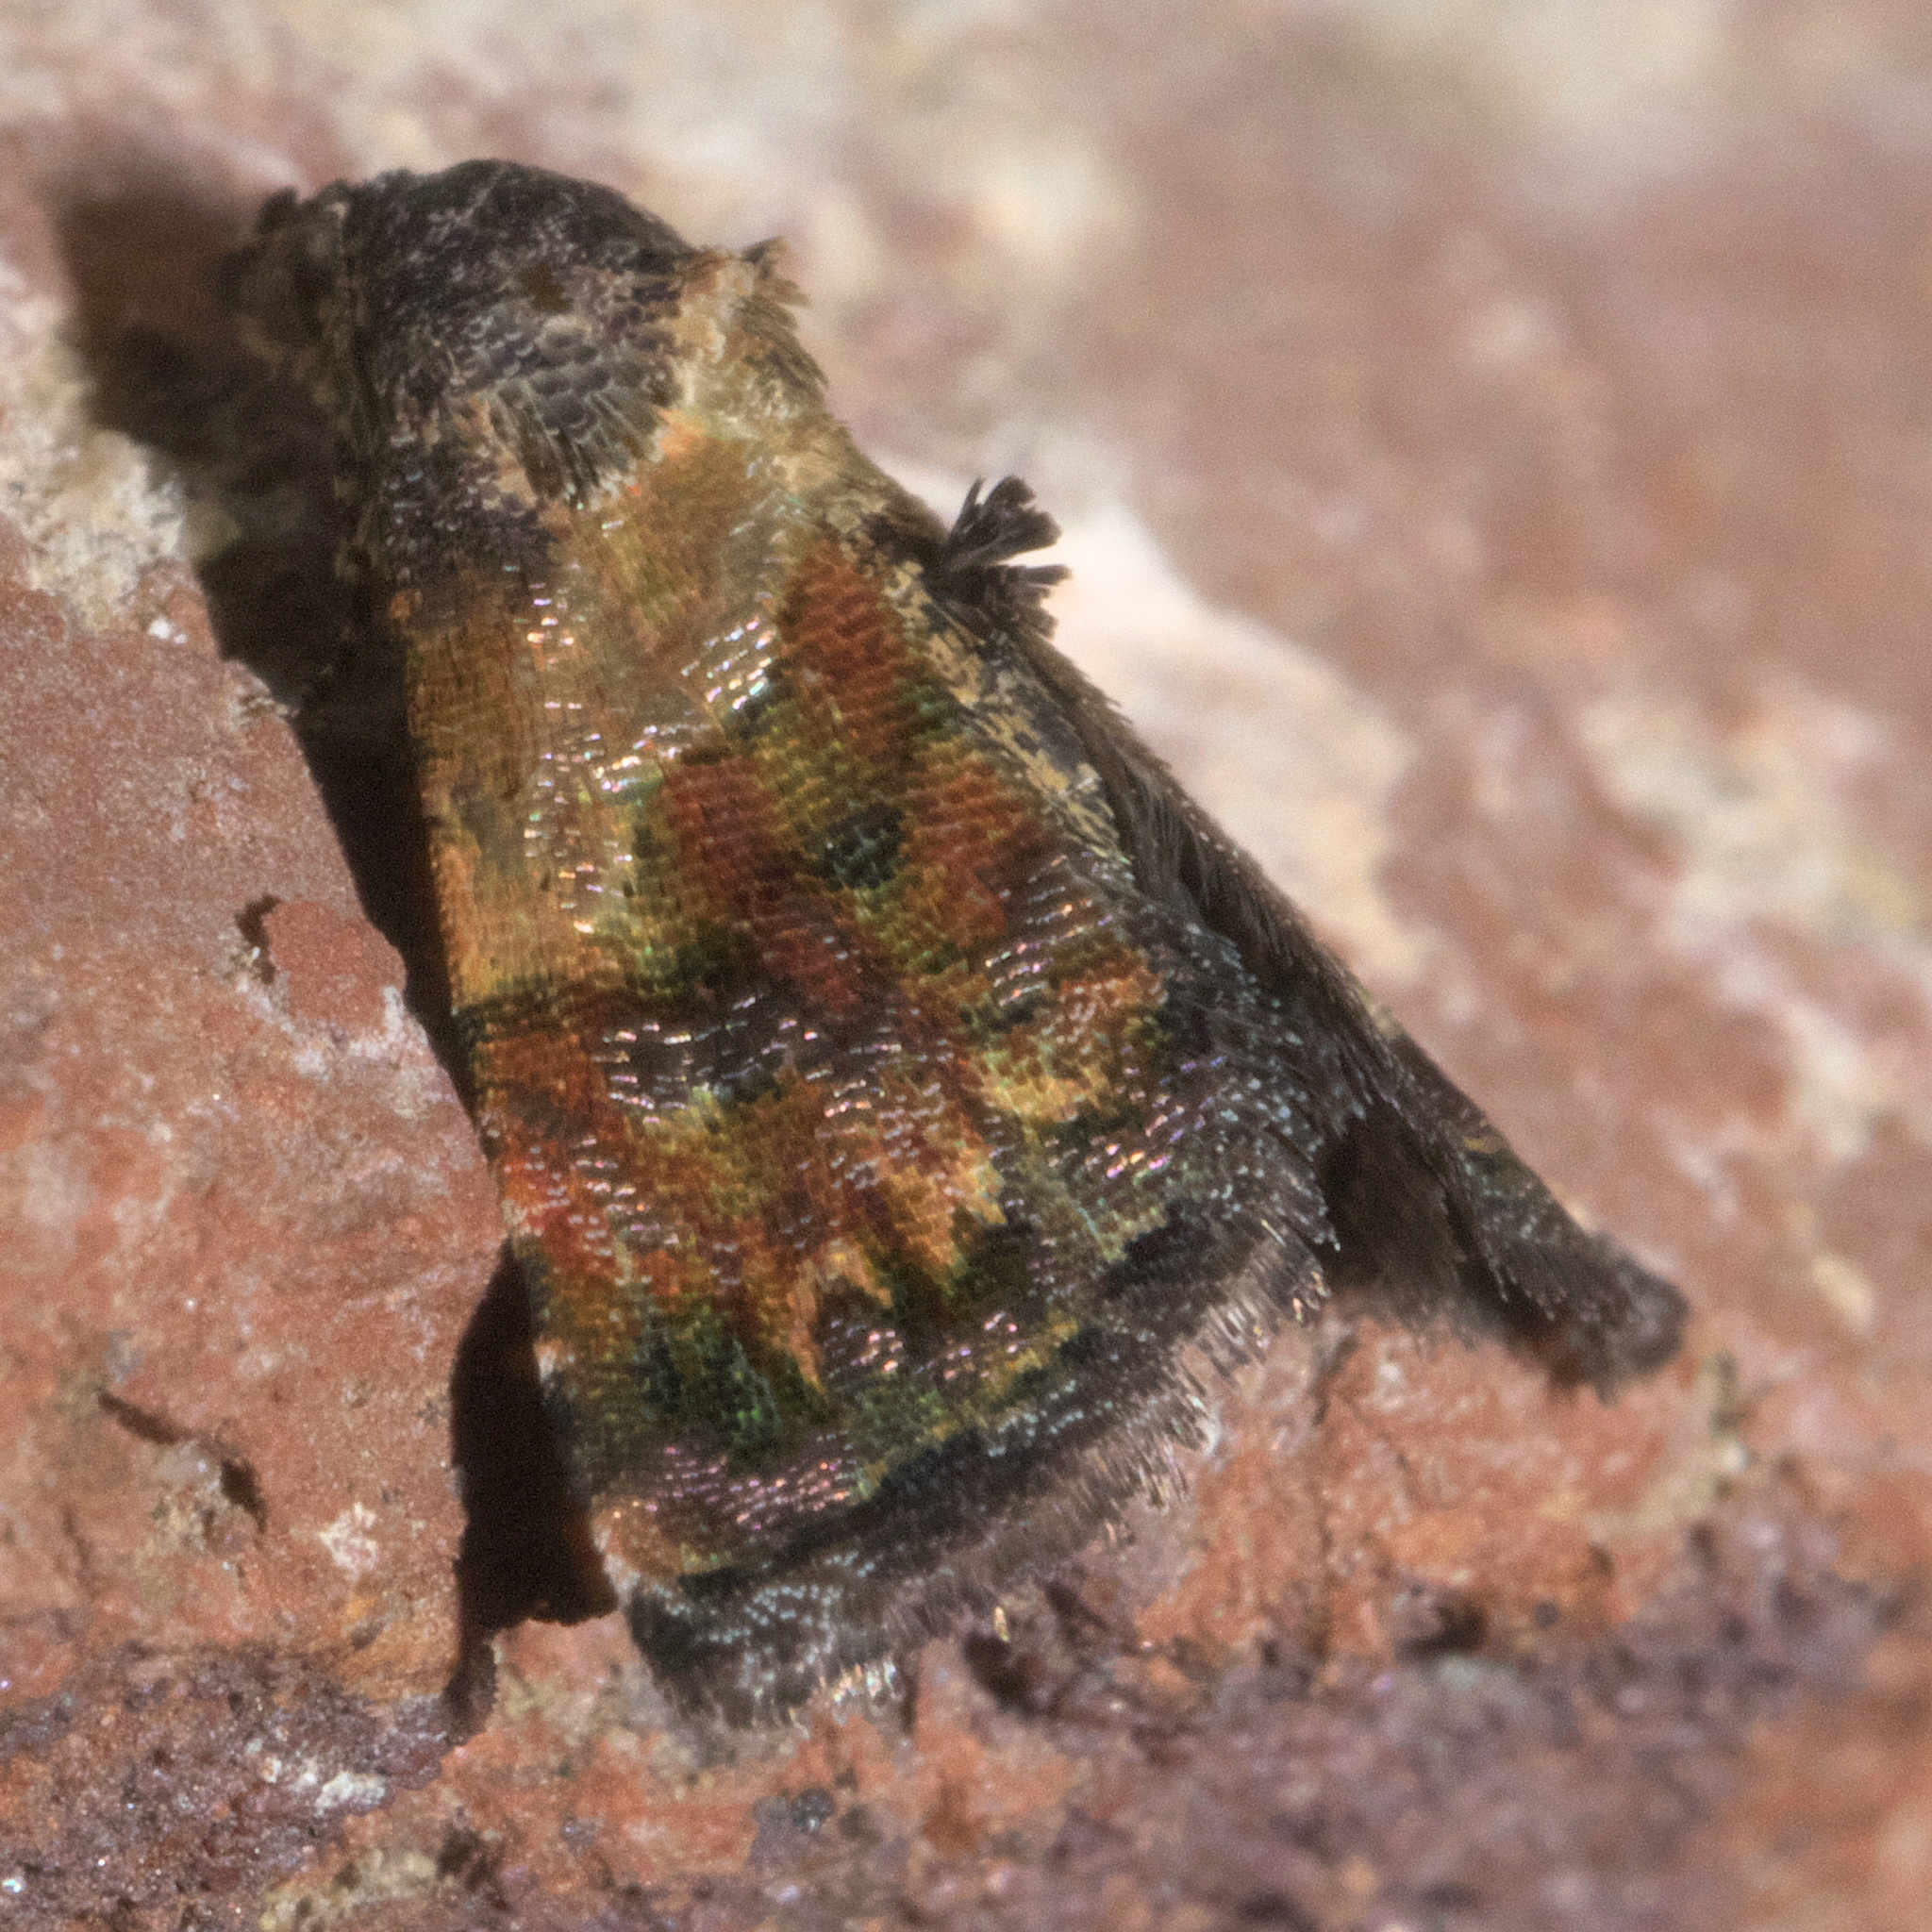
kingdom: Animalia
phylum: Arthropoda
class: Insecta
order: Lepidoptera
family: Noctuidae
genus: Tripudia
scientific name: Tripudia balteata
